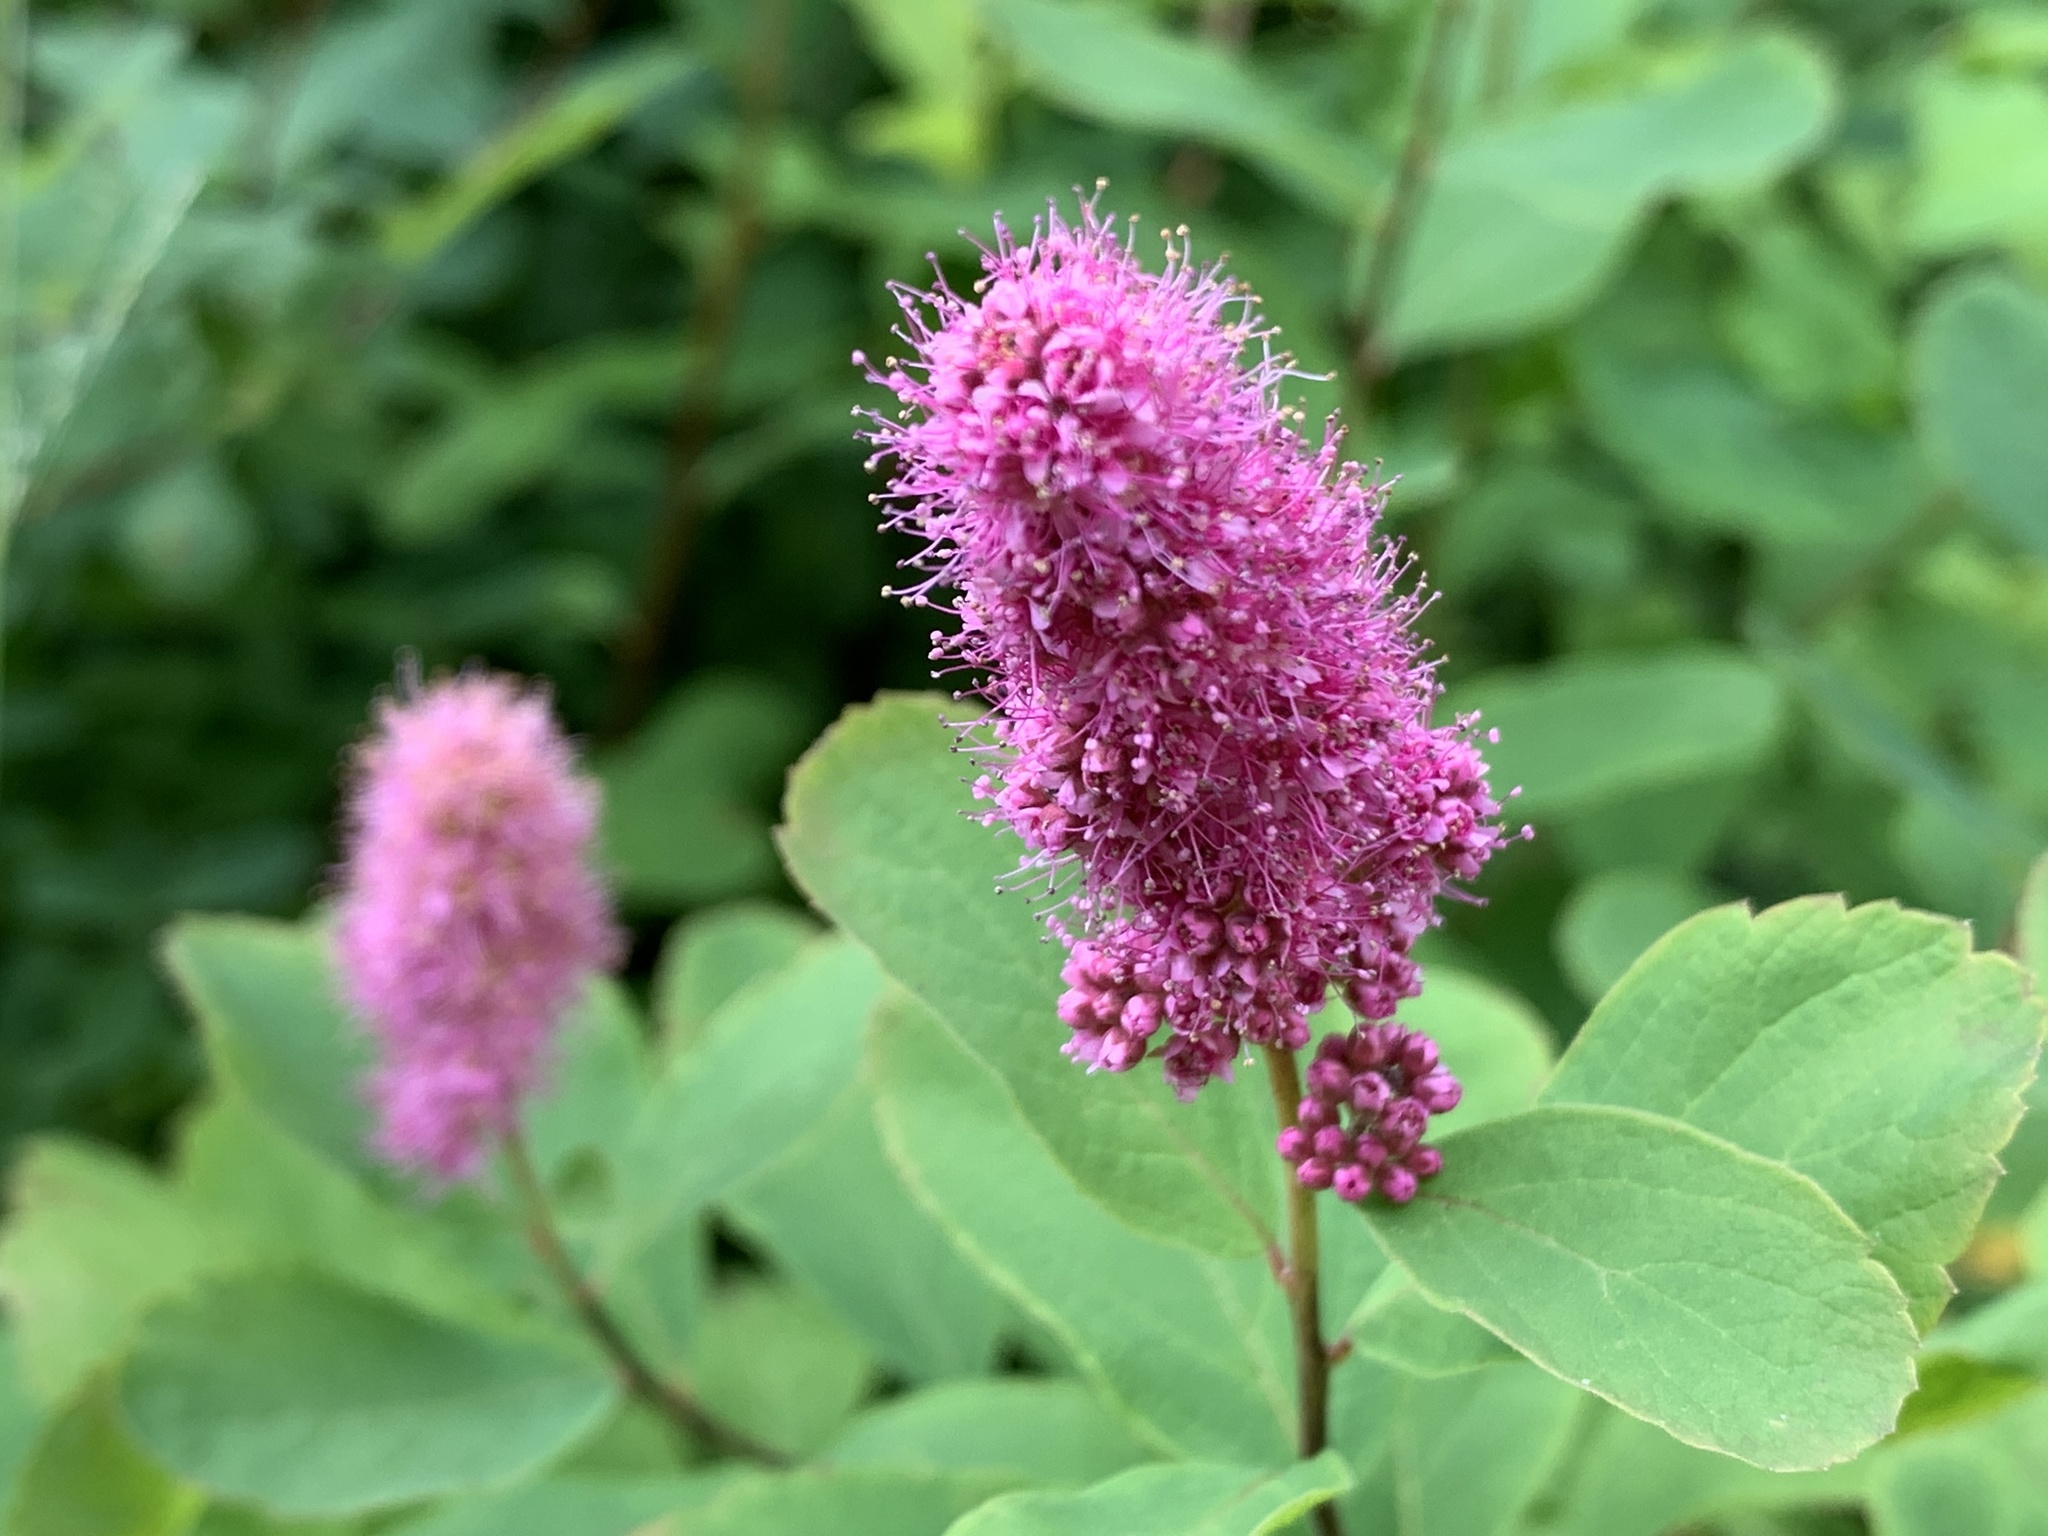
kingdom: Plantae
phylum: Tracheophyta
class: Magnoliopsida
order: Rosales
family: Rosaceae
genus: Spiraea
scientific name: Spiraea douglasii
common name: Steeplebush
